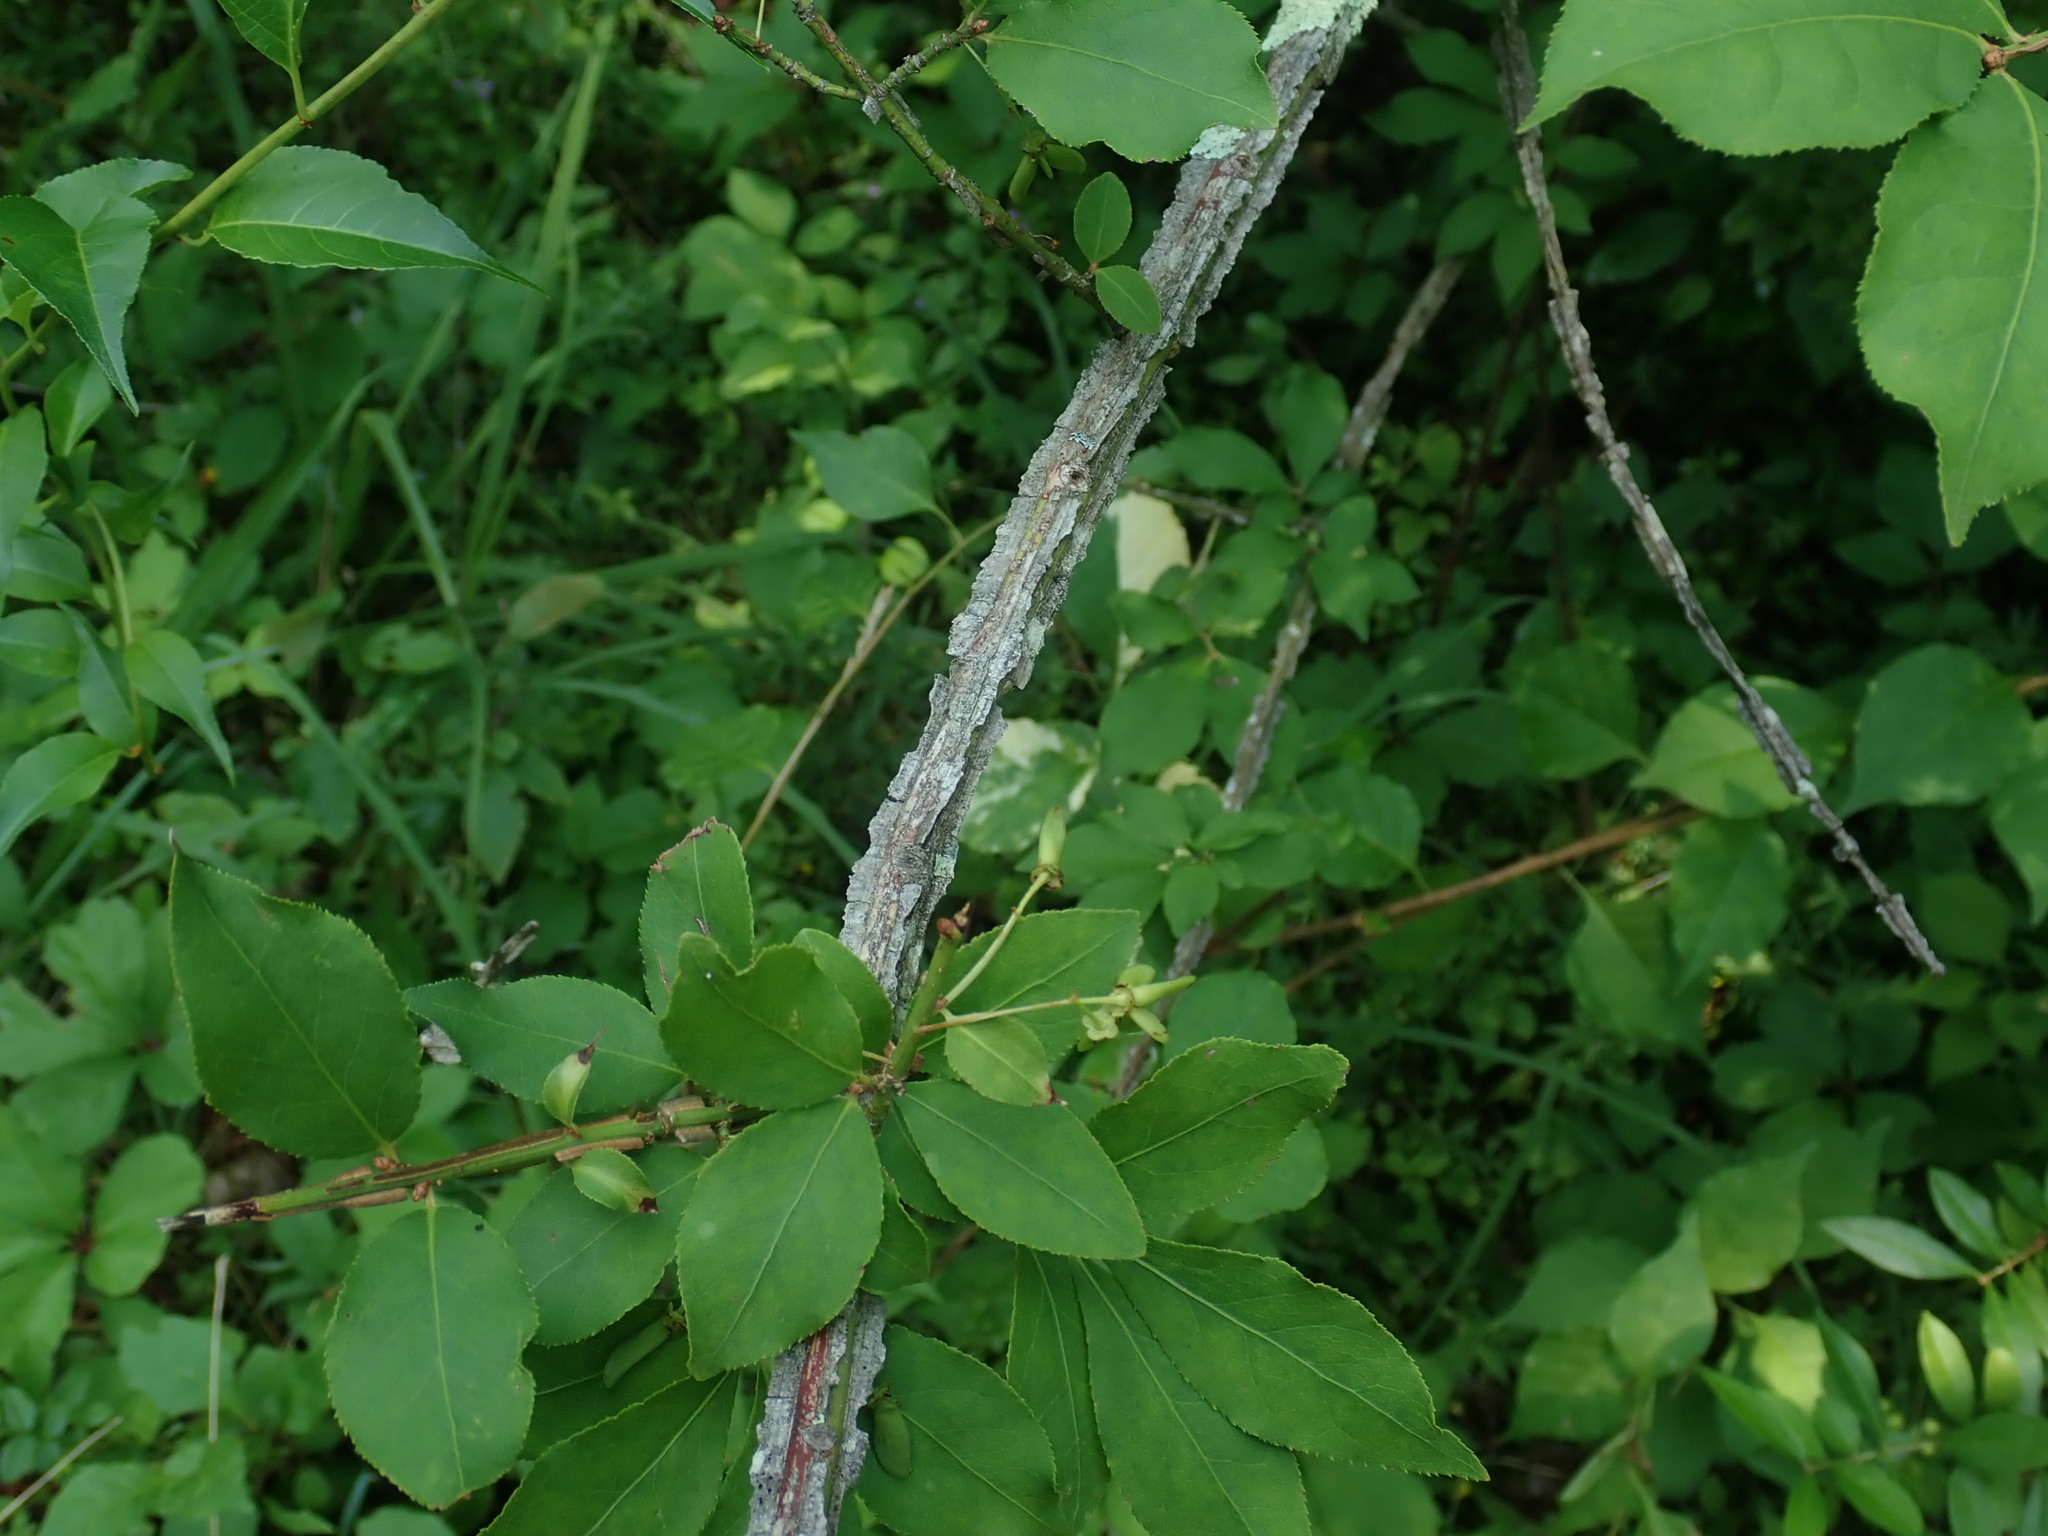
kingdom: Plantae
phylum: Tracheophyta
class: Magnoliopsida
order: Celastrales
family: Celastraceae
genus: Euonymus
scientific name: Euonymus alatus
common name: Winged euonymus
